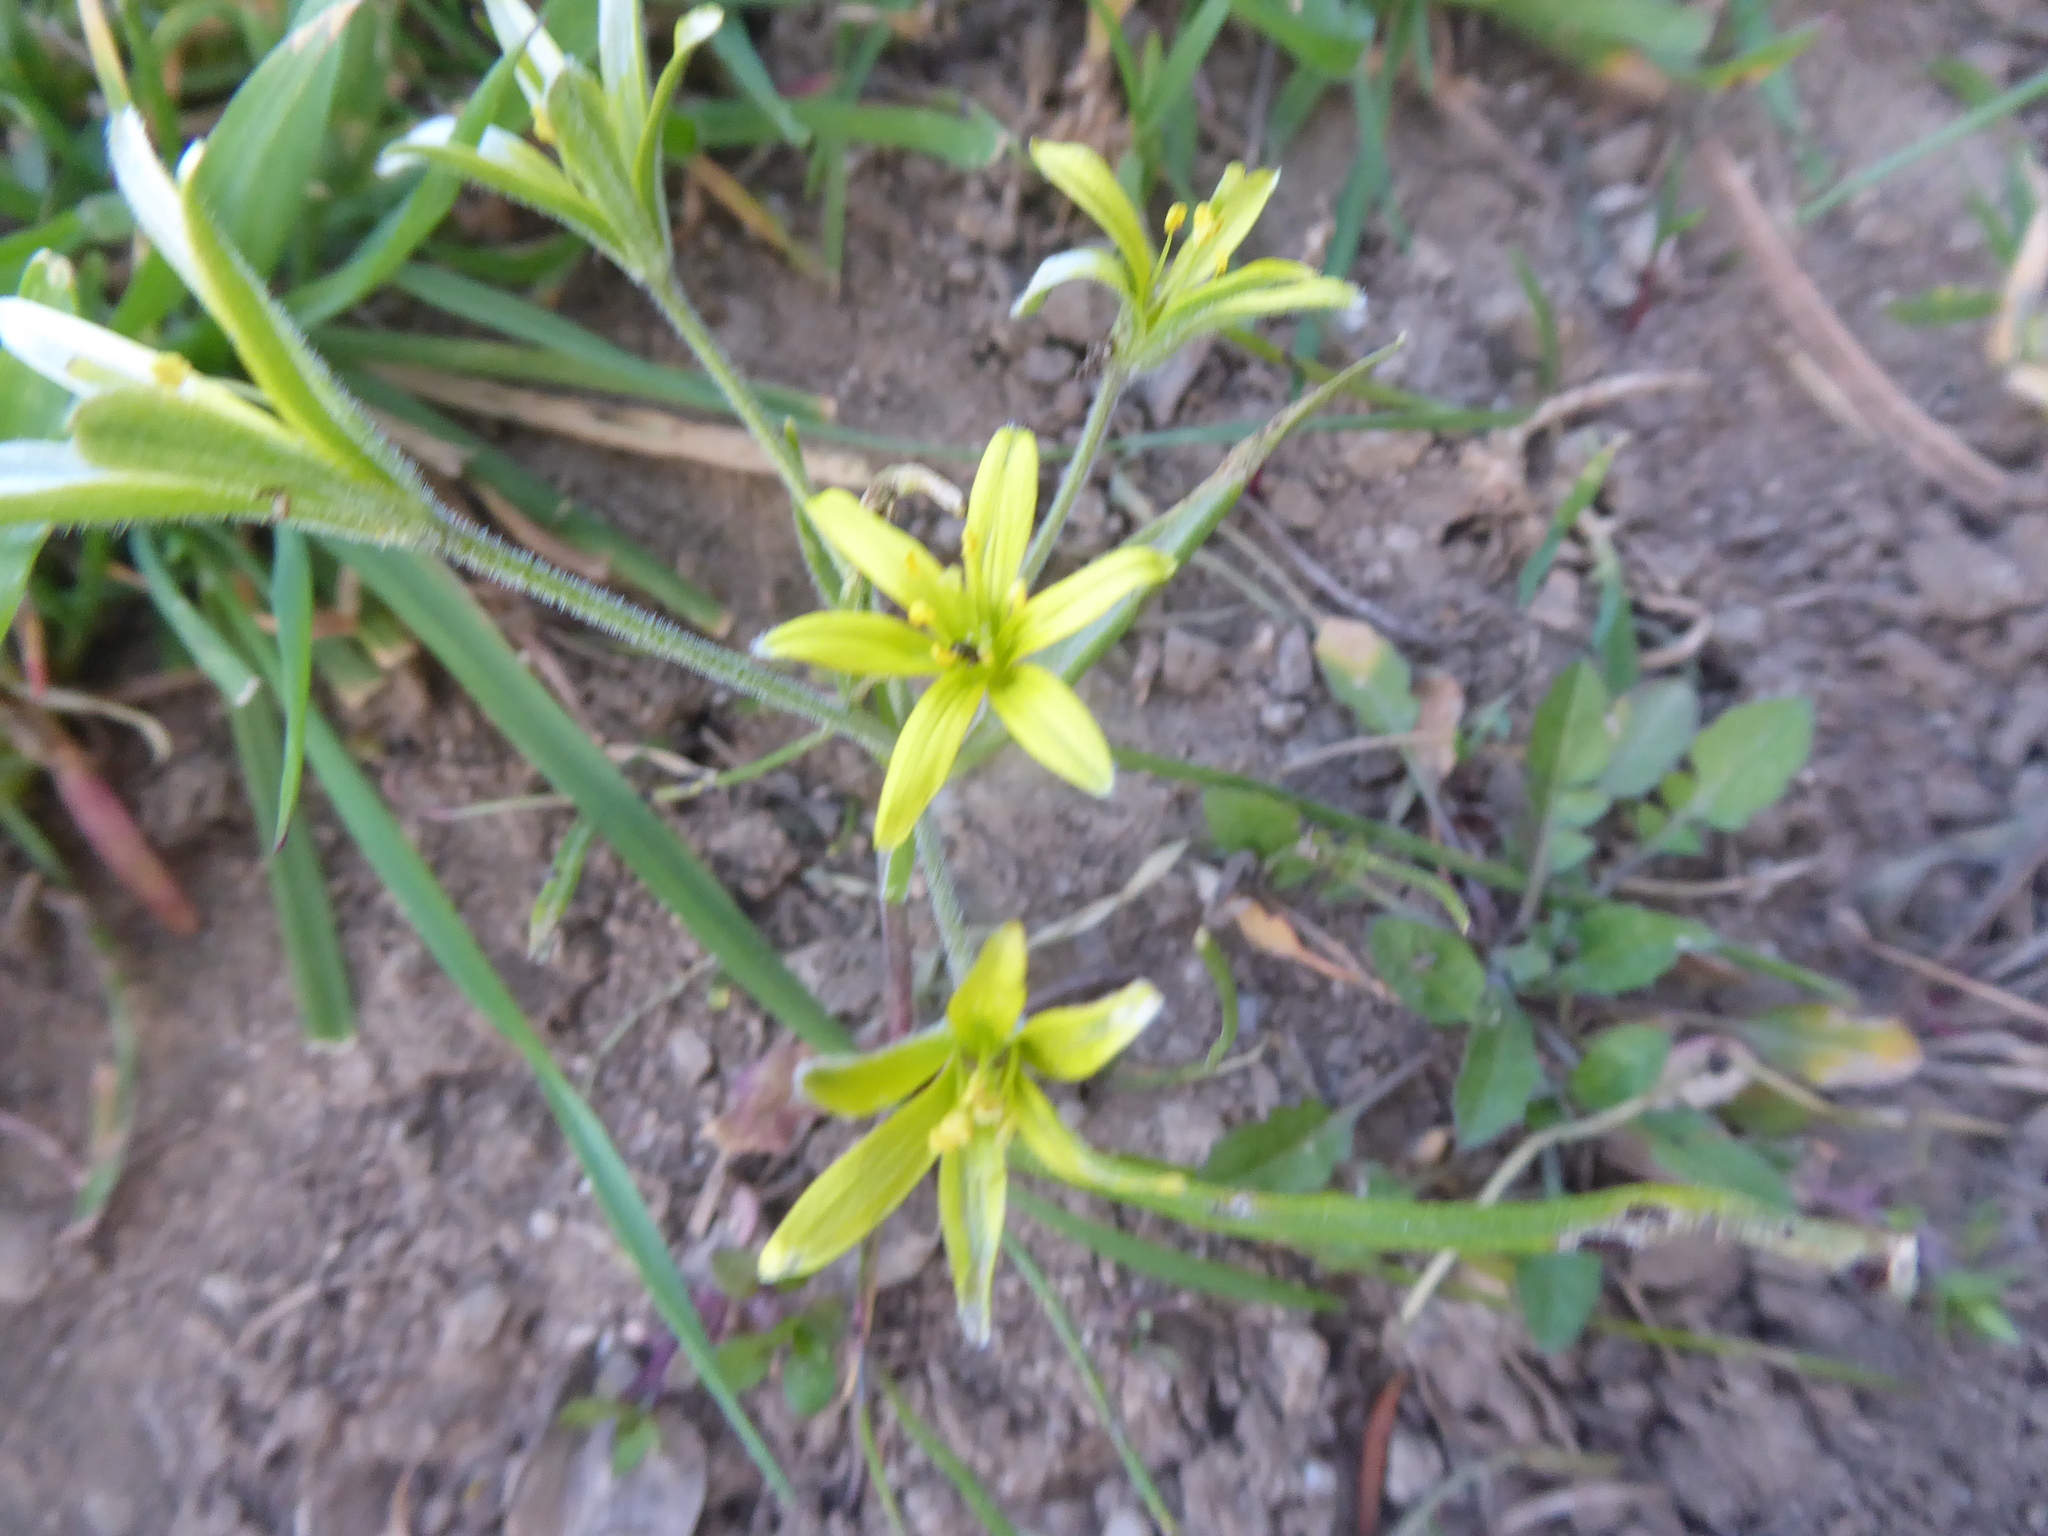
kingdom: Plantae
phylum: Tracheophyta
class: Liliopsida
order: Liliales
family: Liliaceae
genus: Gagea
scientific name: Gagea villosa
